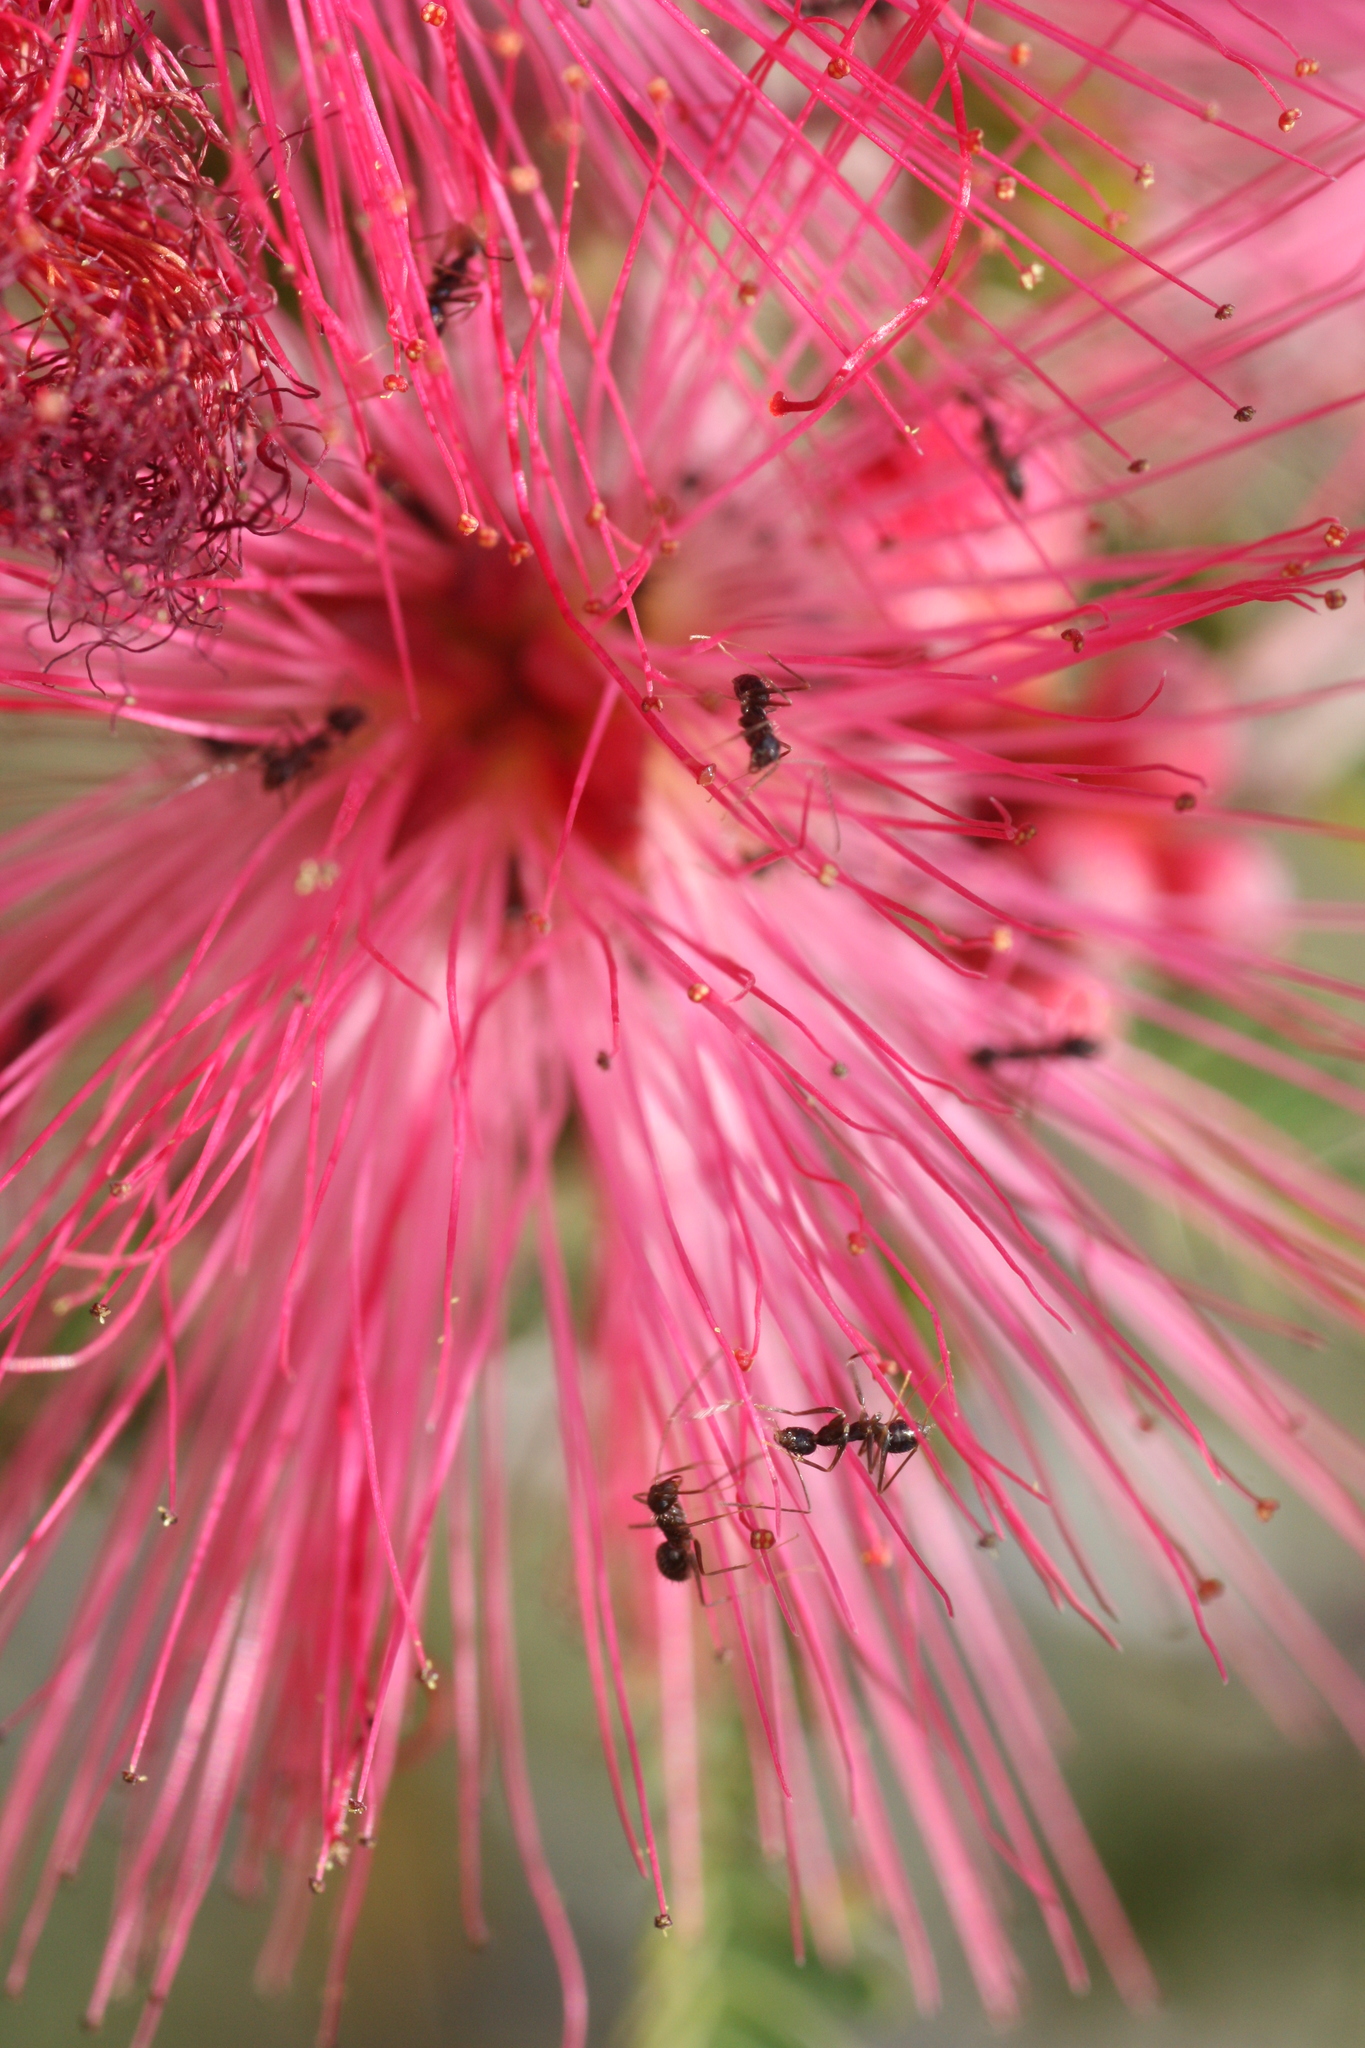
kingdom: Animalia
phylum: Arthropoda
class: Insecta
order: Hymenoptera
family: Formicidae
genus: Paratrechina
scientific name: Paratrechina longicornis
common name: Longhorned crazy ant
